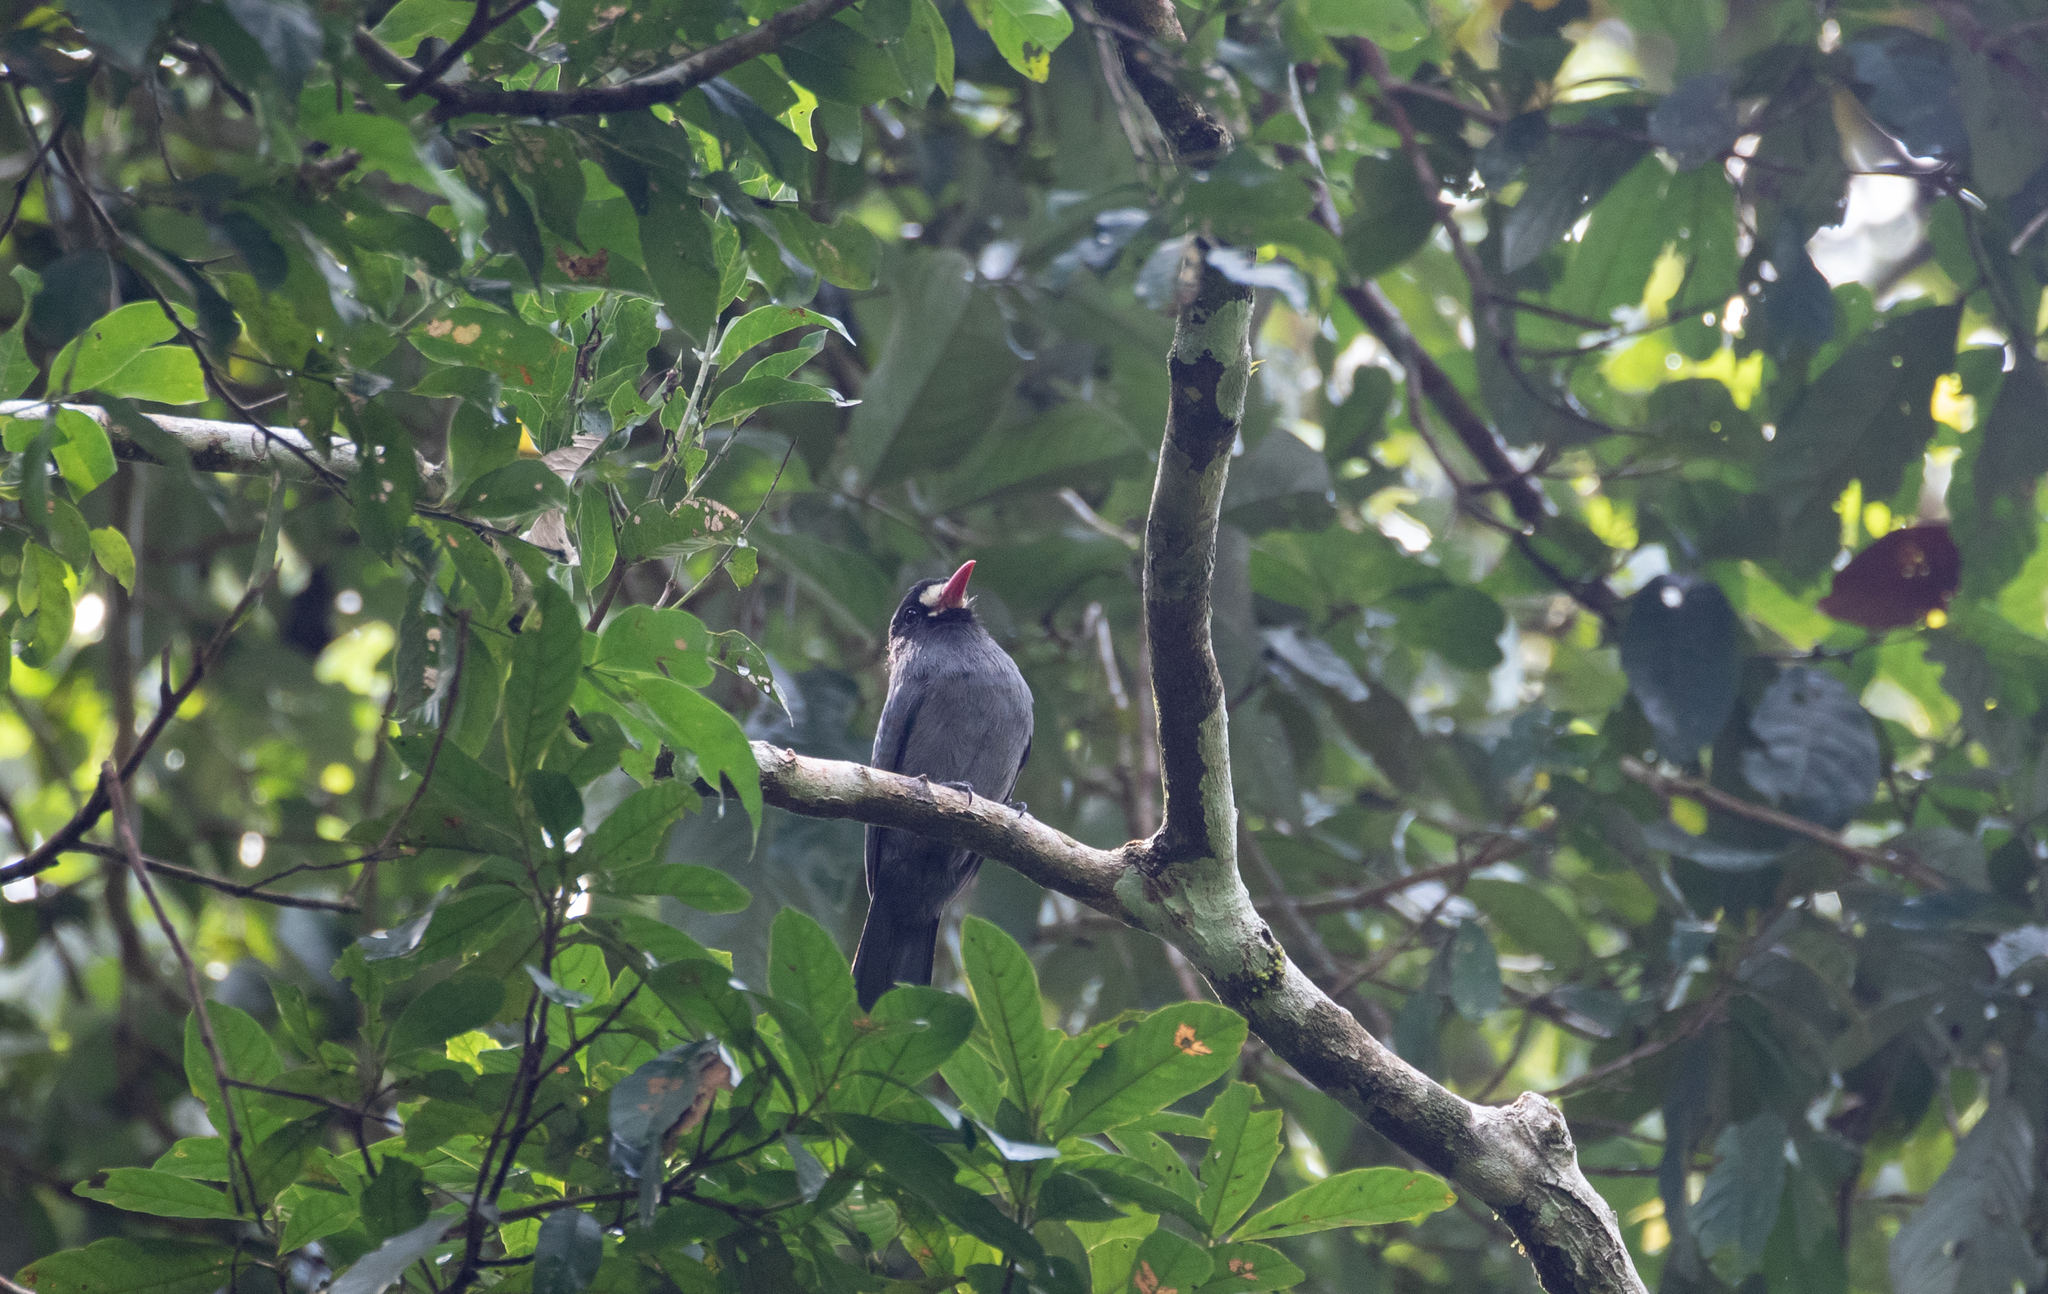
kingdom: Animalia
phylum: Chordata
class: Aves
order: Piciformes
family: Bucconidae
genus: Monasa
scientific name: Monasa morphoeus
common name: White-fronted nunbird
